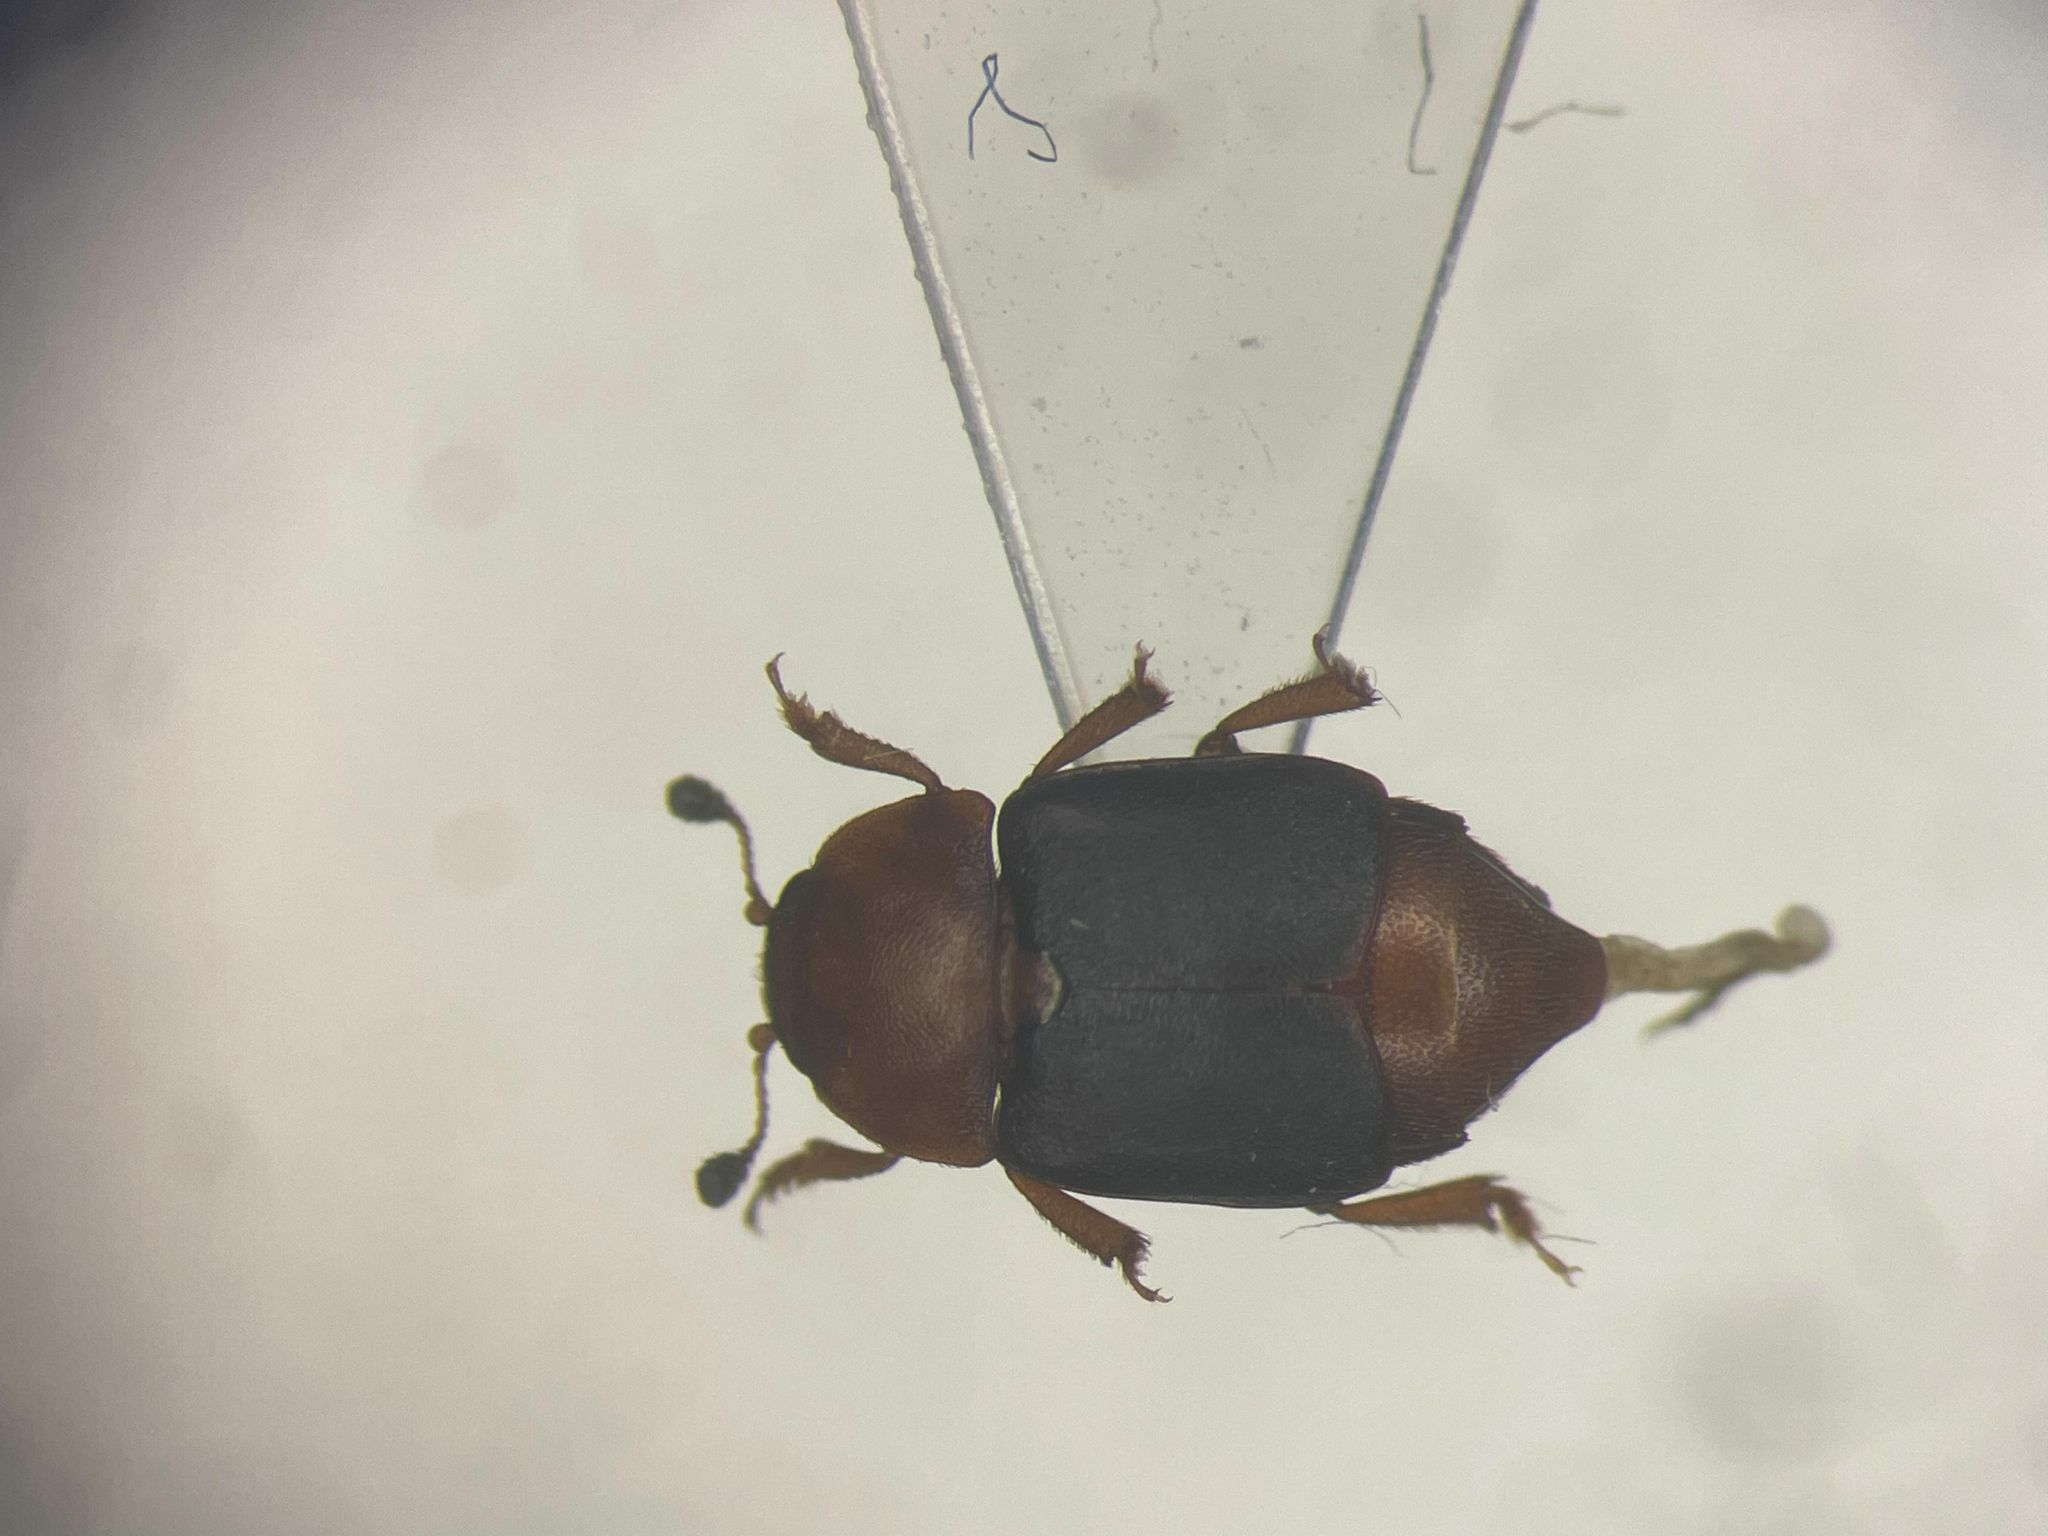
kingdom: Animalia
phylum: Arthropoda
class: Insecta
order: Coleoptera
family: Nitidulidae
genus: Carpophilus
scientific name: Carpophilus
